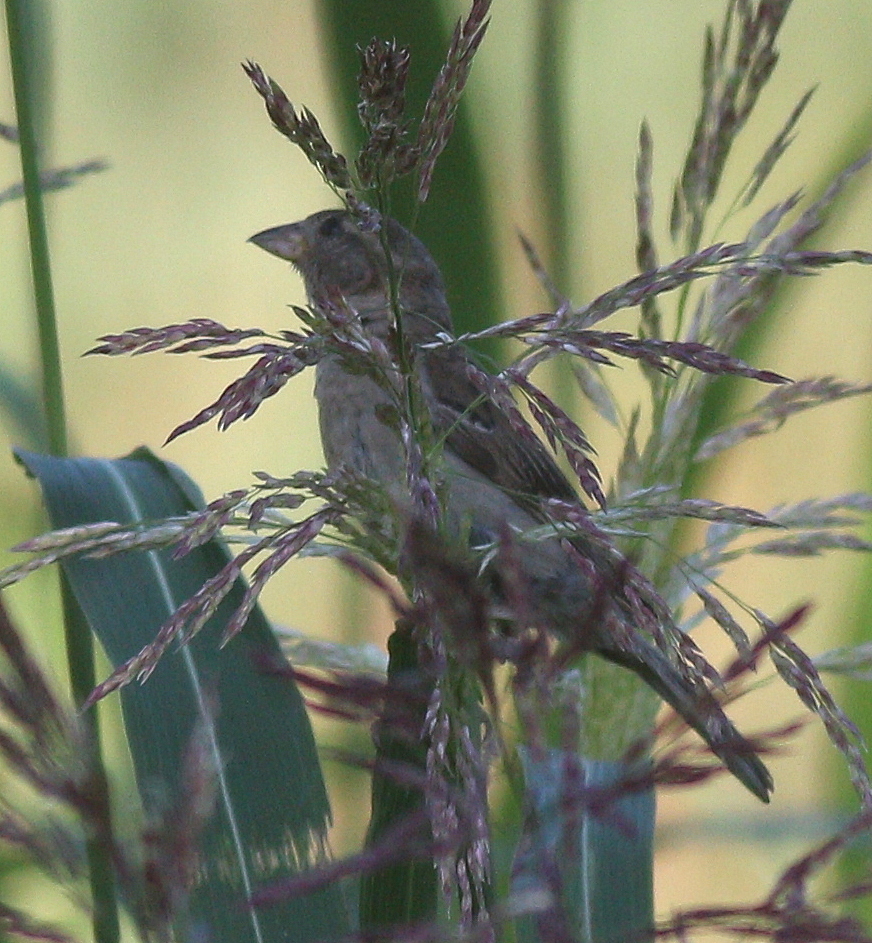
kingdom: Animalia
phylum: Chordata
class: Aves
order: Passeriformes
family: Passeridae
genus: Passer
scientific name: Passer domesticus
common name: House sparrow
